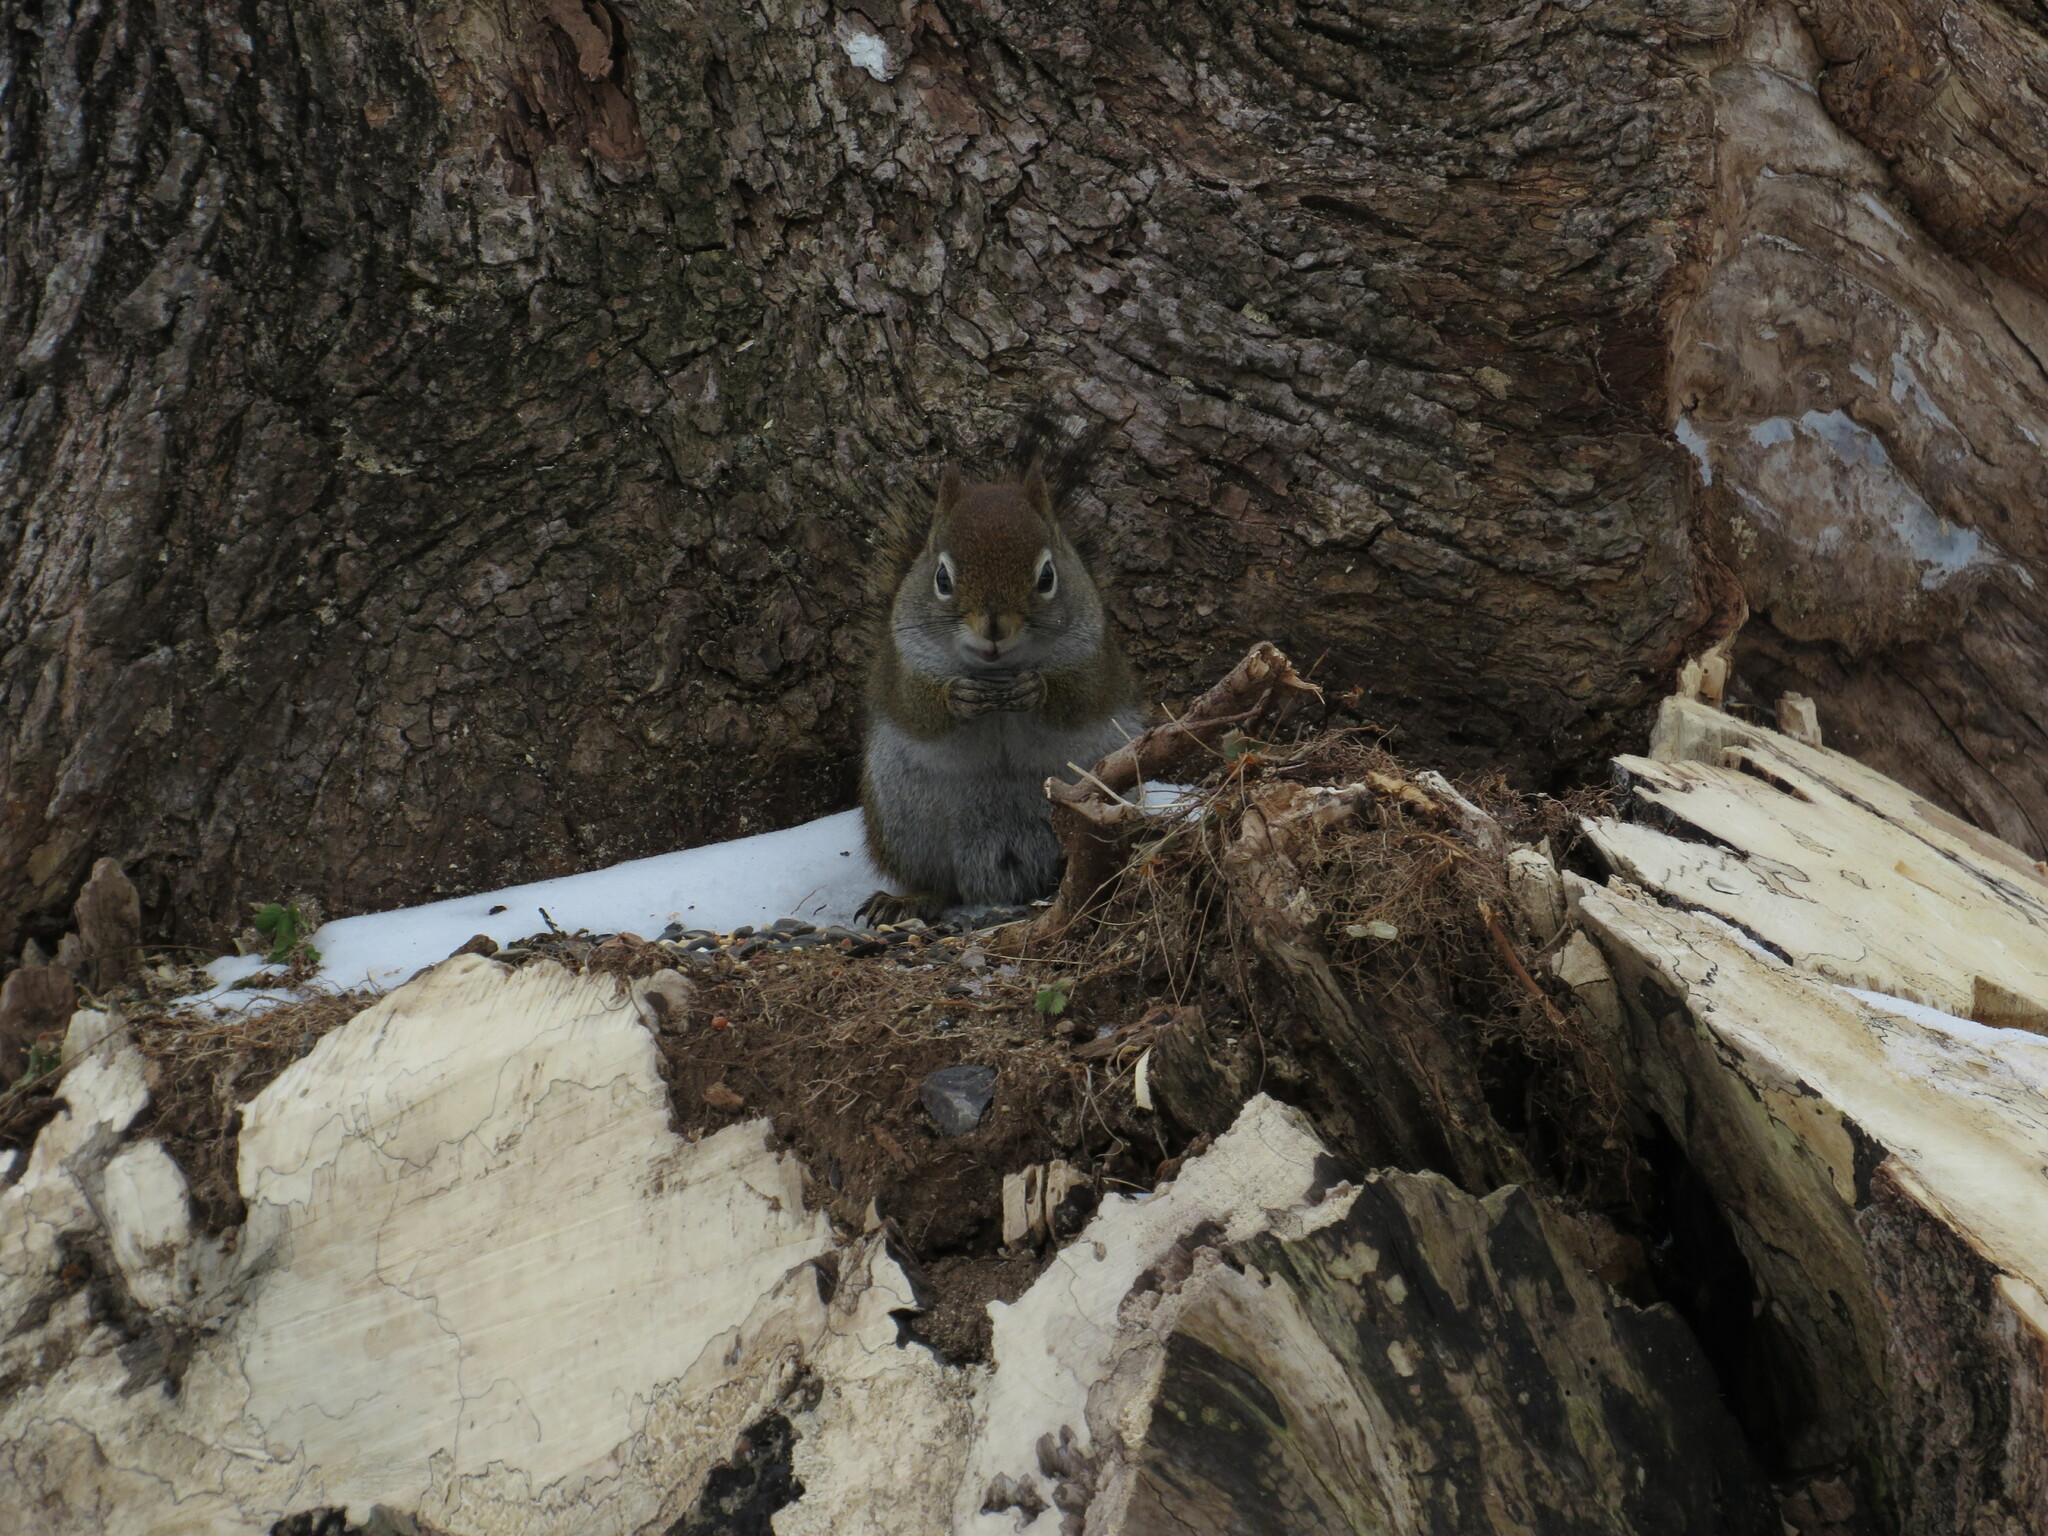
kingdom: Animalia
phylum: Chordata
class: Mammalia
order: Rodentia
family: Sciuridae
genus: Tamiasciurus
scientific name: Tamiasciurus hudsonicus
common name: Red squirrel
